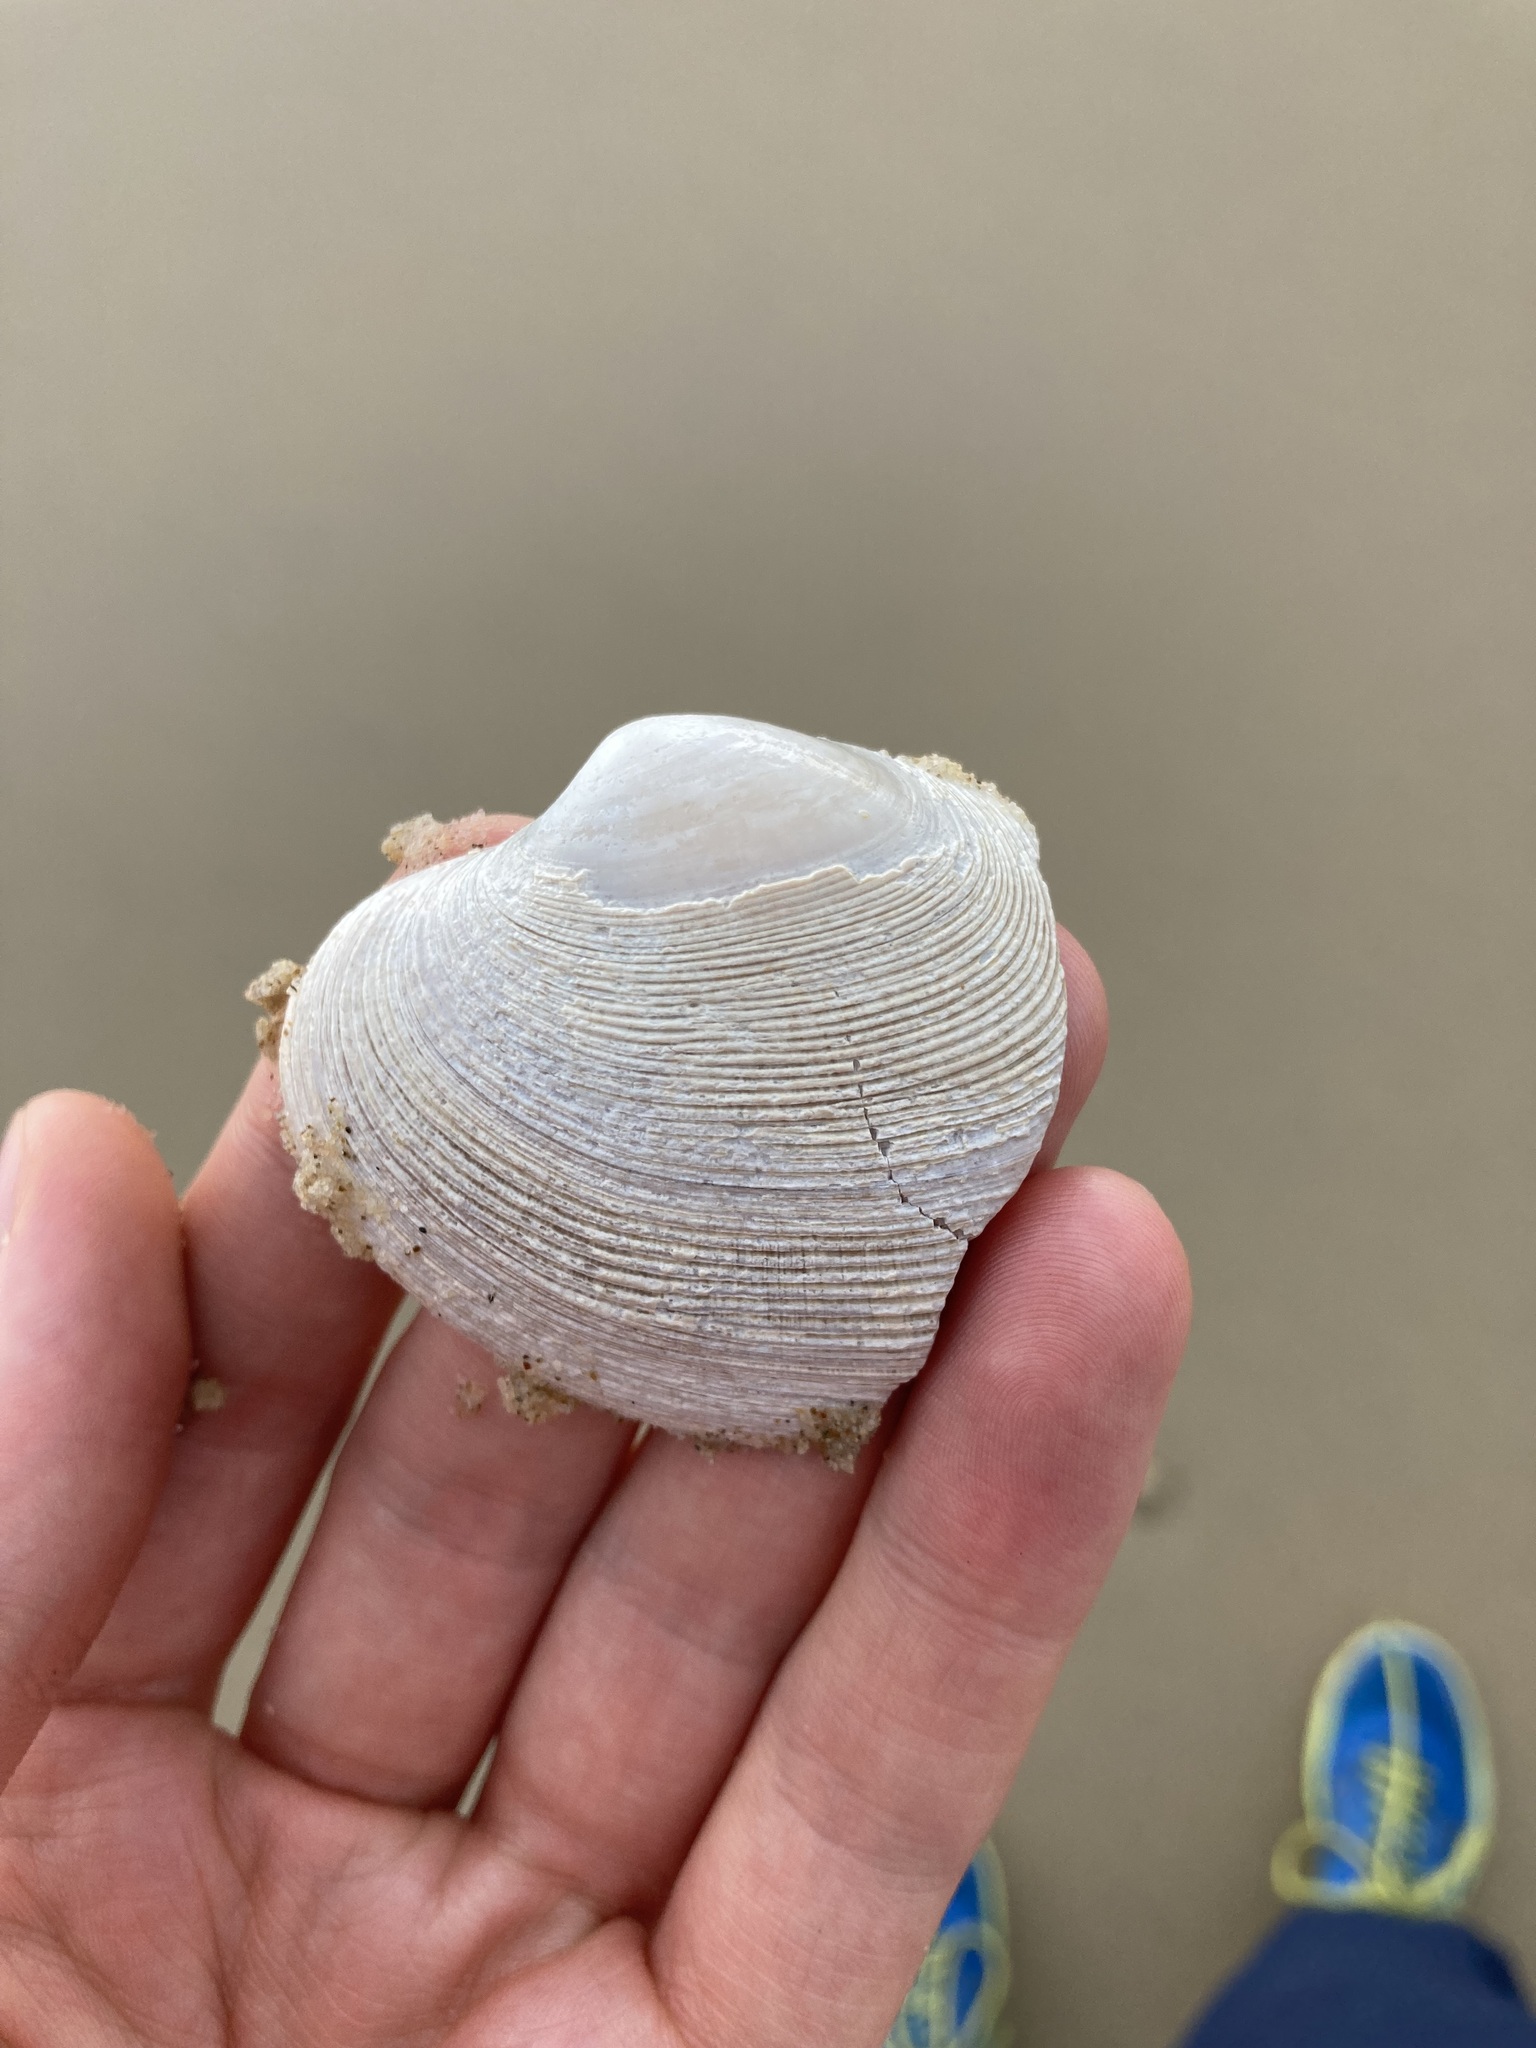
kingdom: Animalia
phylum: Mollusca
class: Bivalvia
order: Venerida
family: Veneridae
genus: Tapes
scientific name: Tapes conspersus
